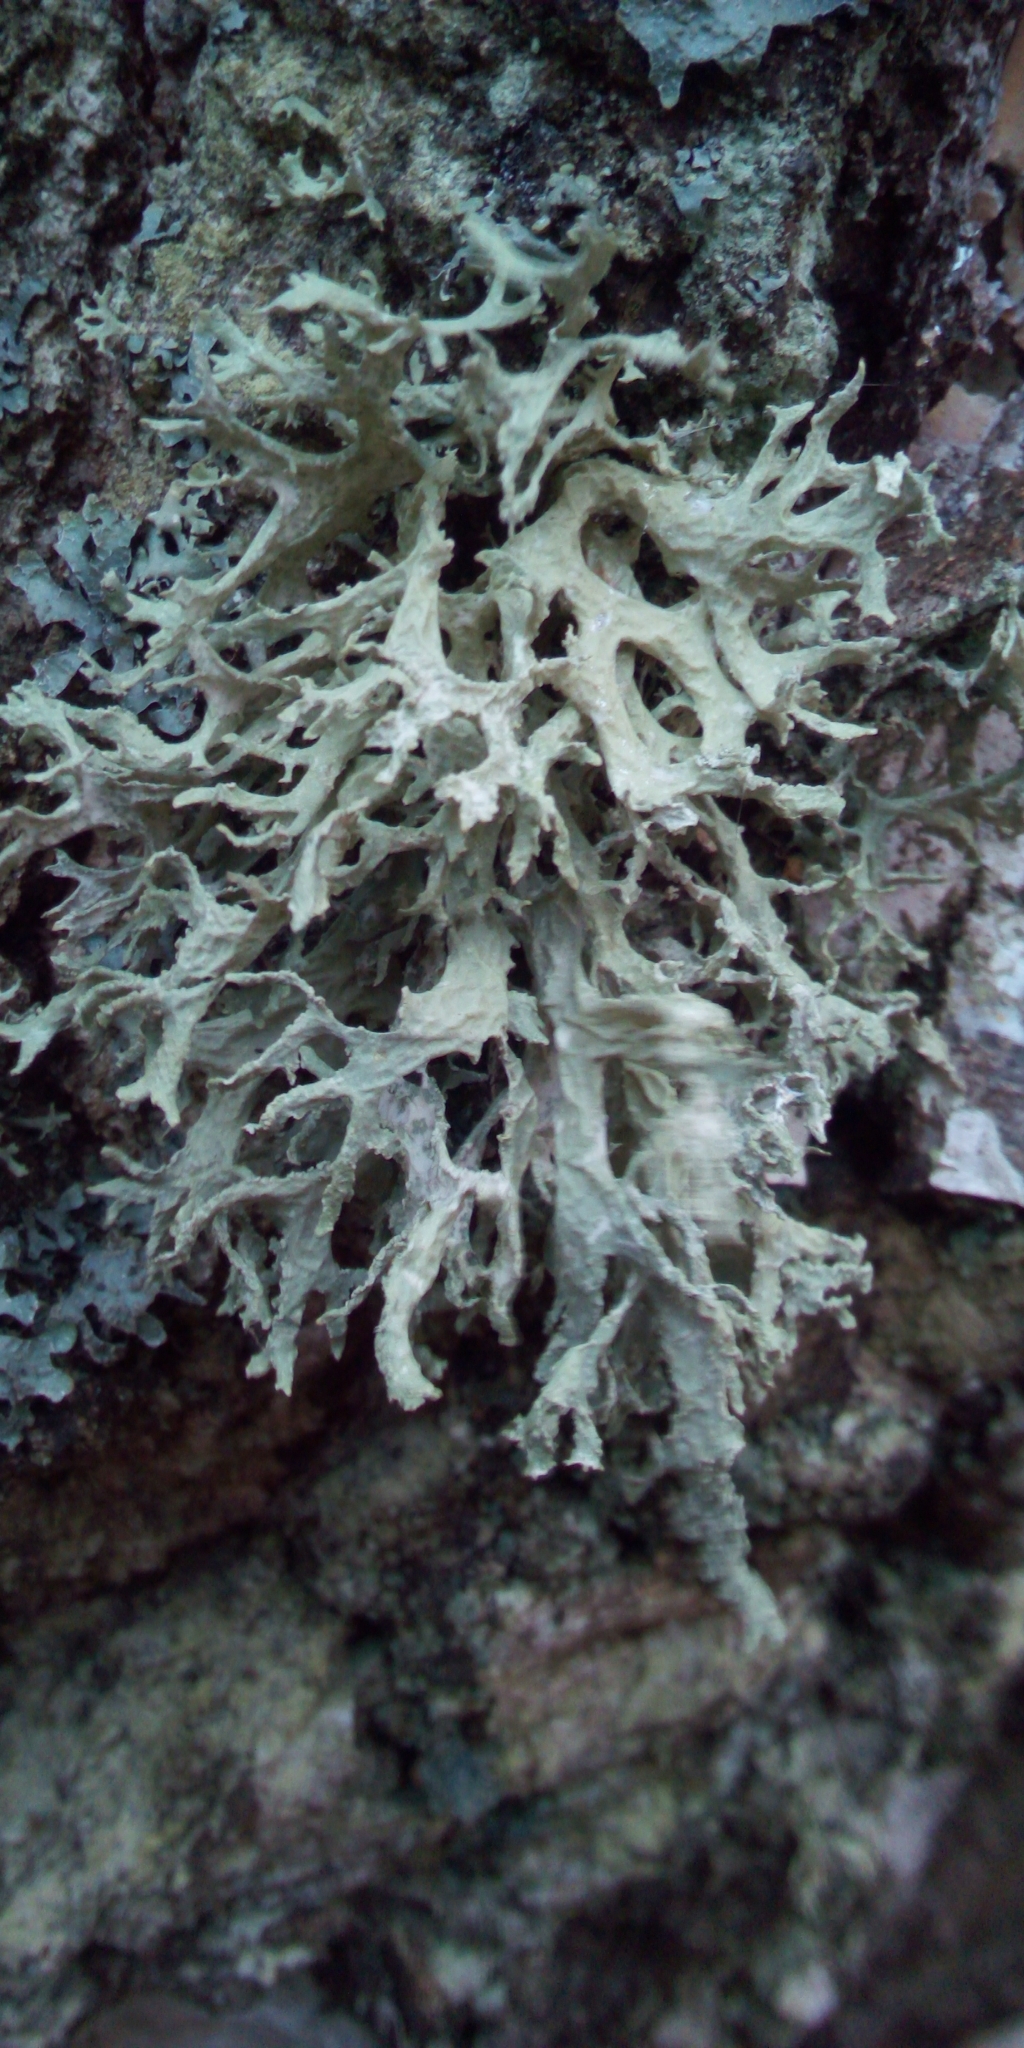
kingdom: Fungi
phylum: Ascomycota
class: Lecanoromycetes
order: Lecanorales
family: Parmeliaceae
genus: Evernia
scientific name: Evernia prunastri
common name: Oak moss
